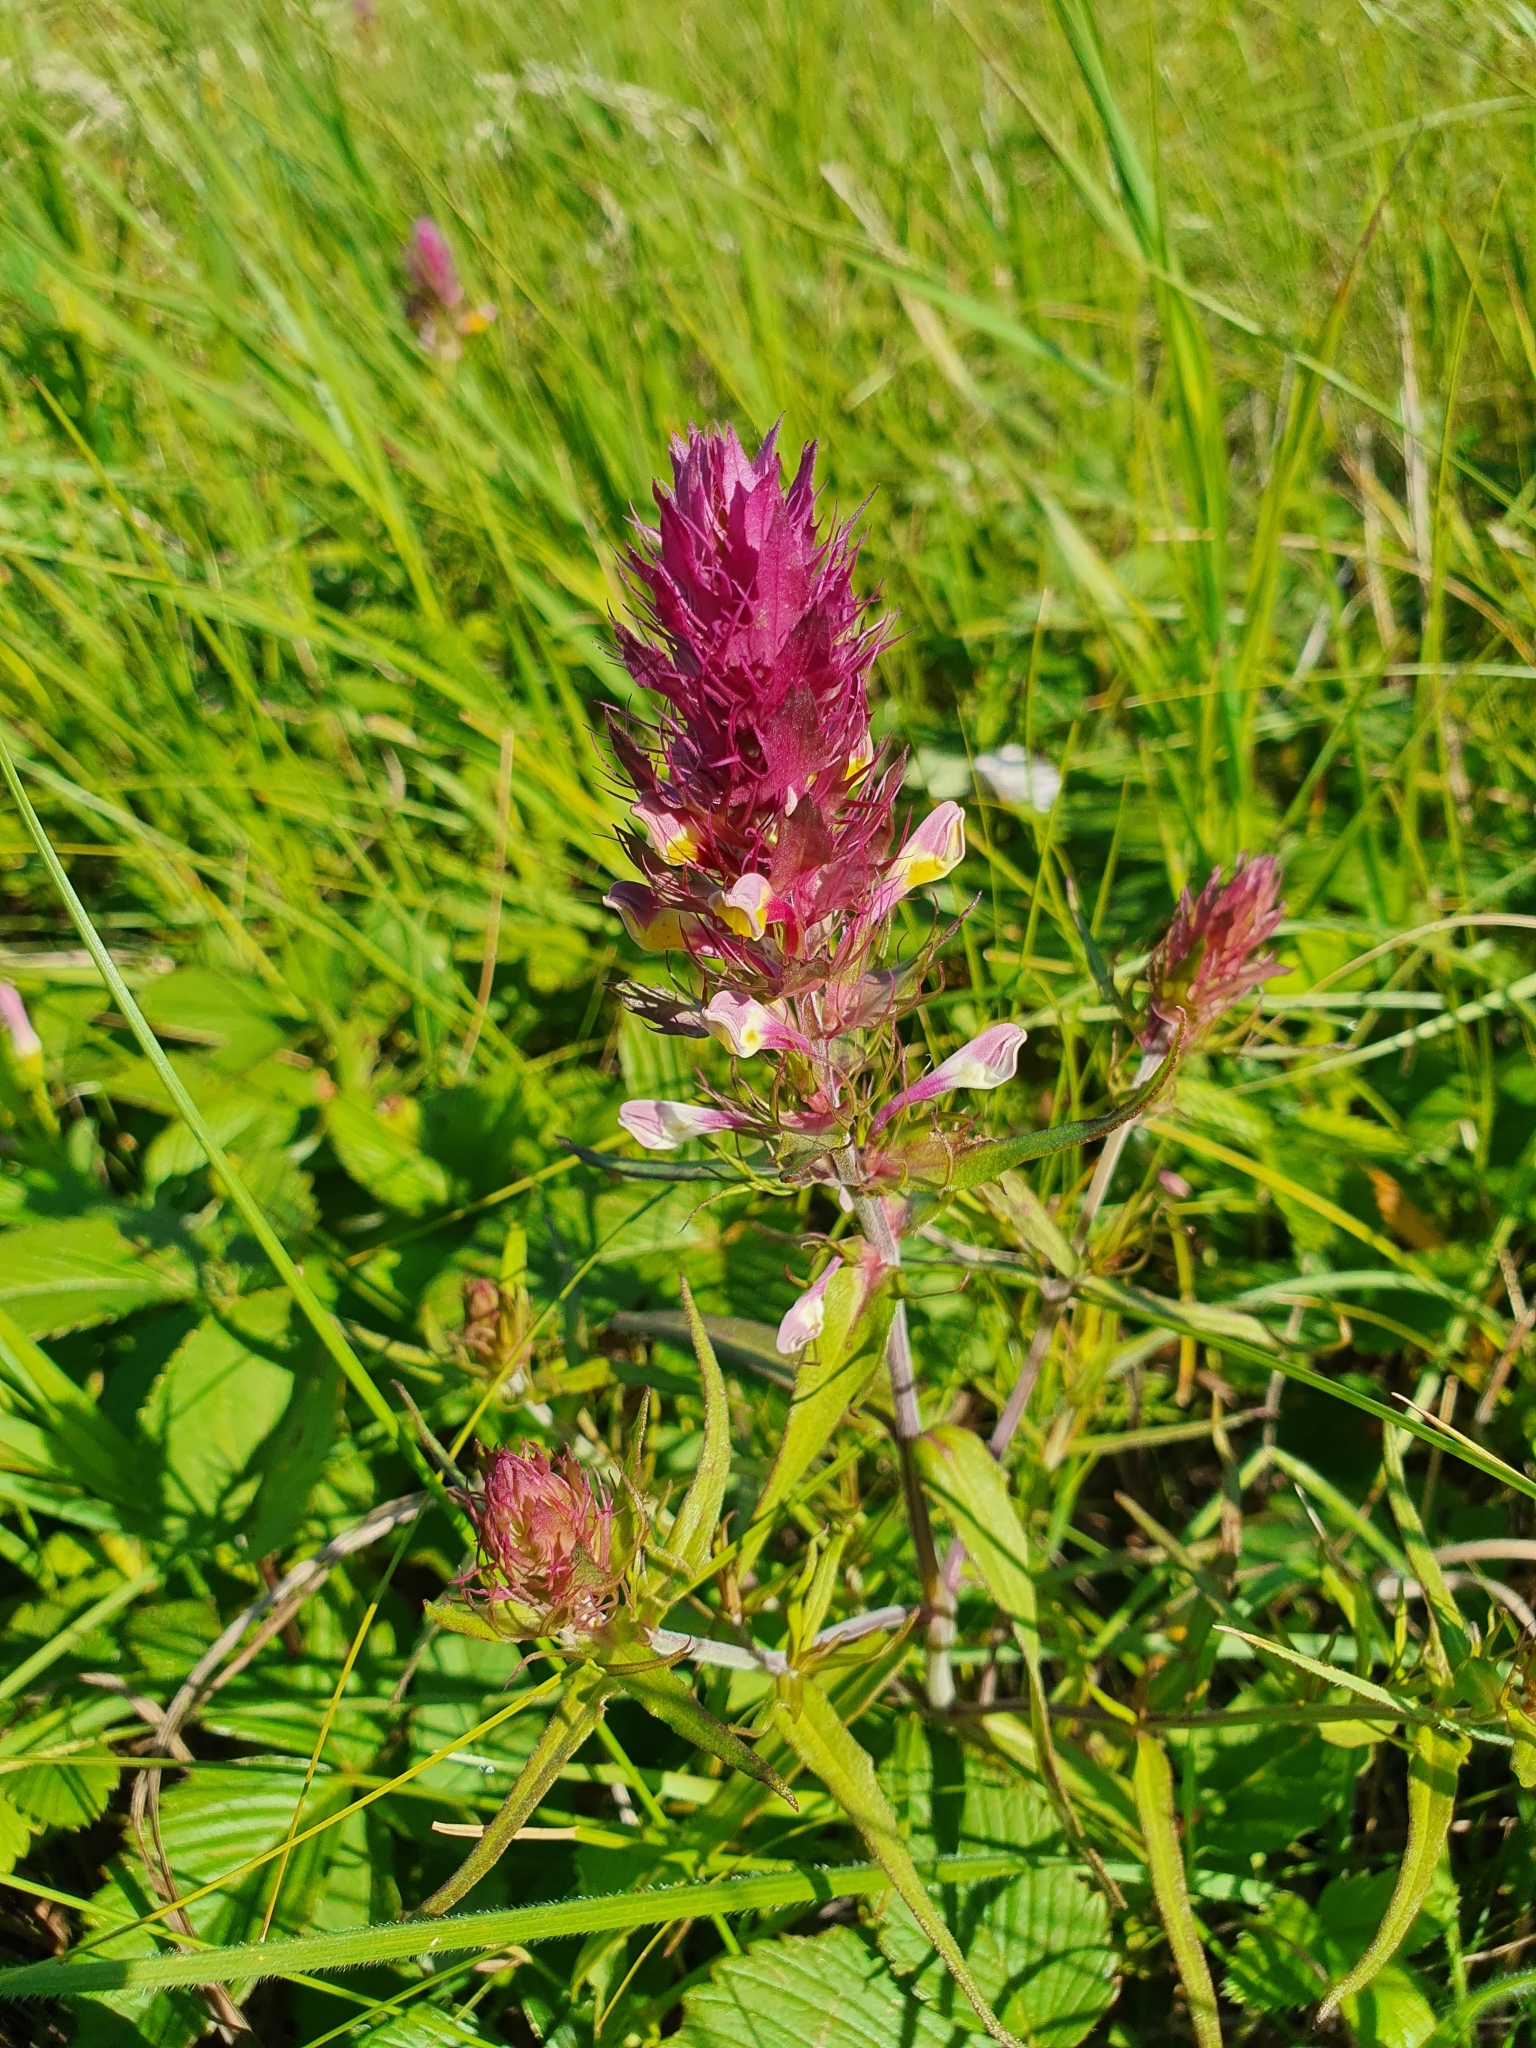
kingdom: Plantae
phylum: Tracheophyta
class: Magnoliopsida
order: Lamiales
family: Orobanchaceae
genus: Melampyrum
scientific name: Melampyrum arvense
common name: Field cow-wheat
